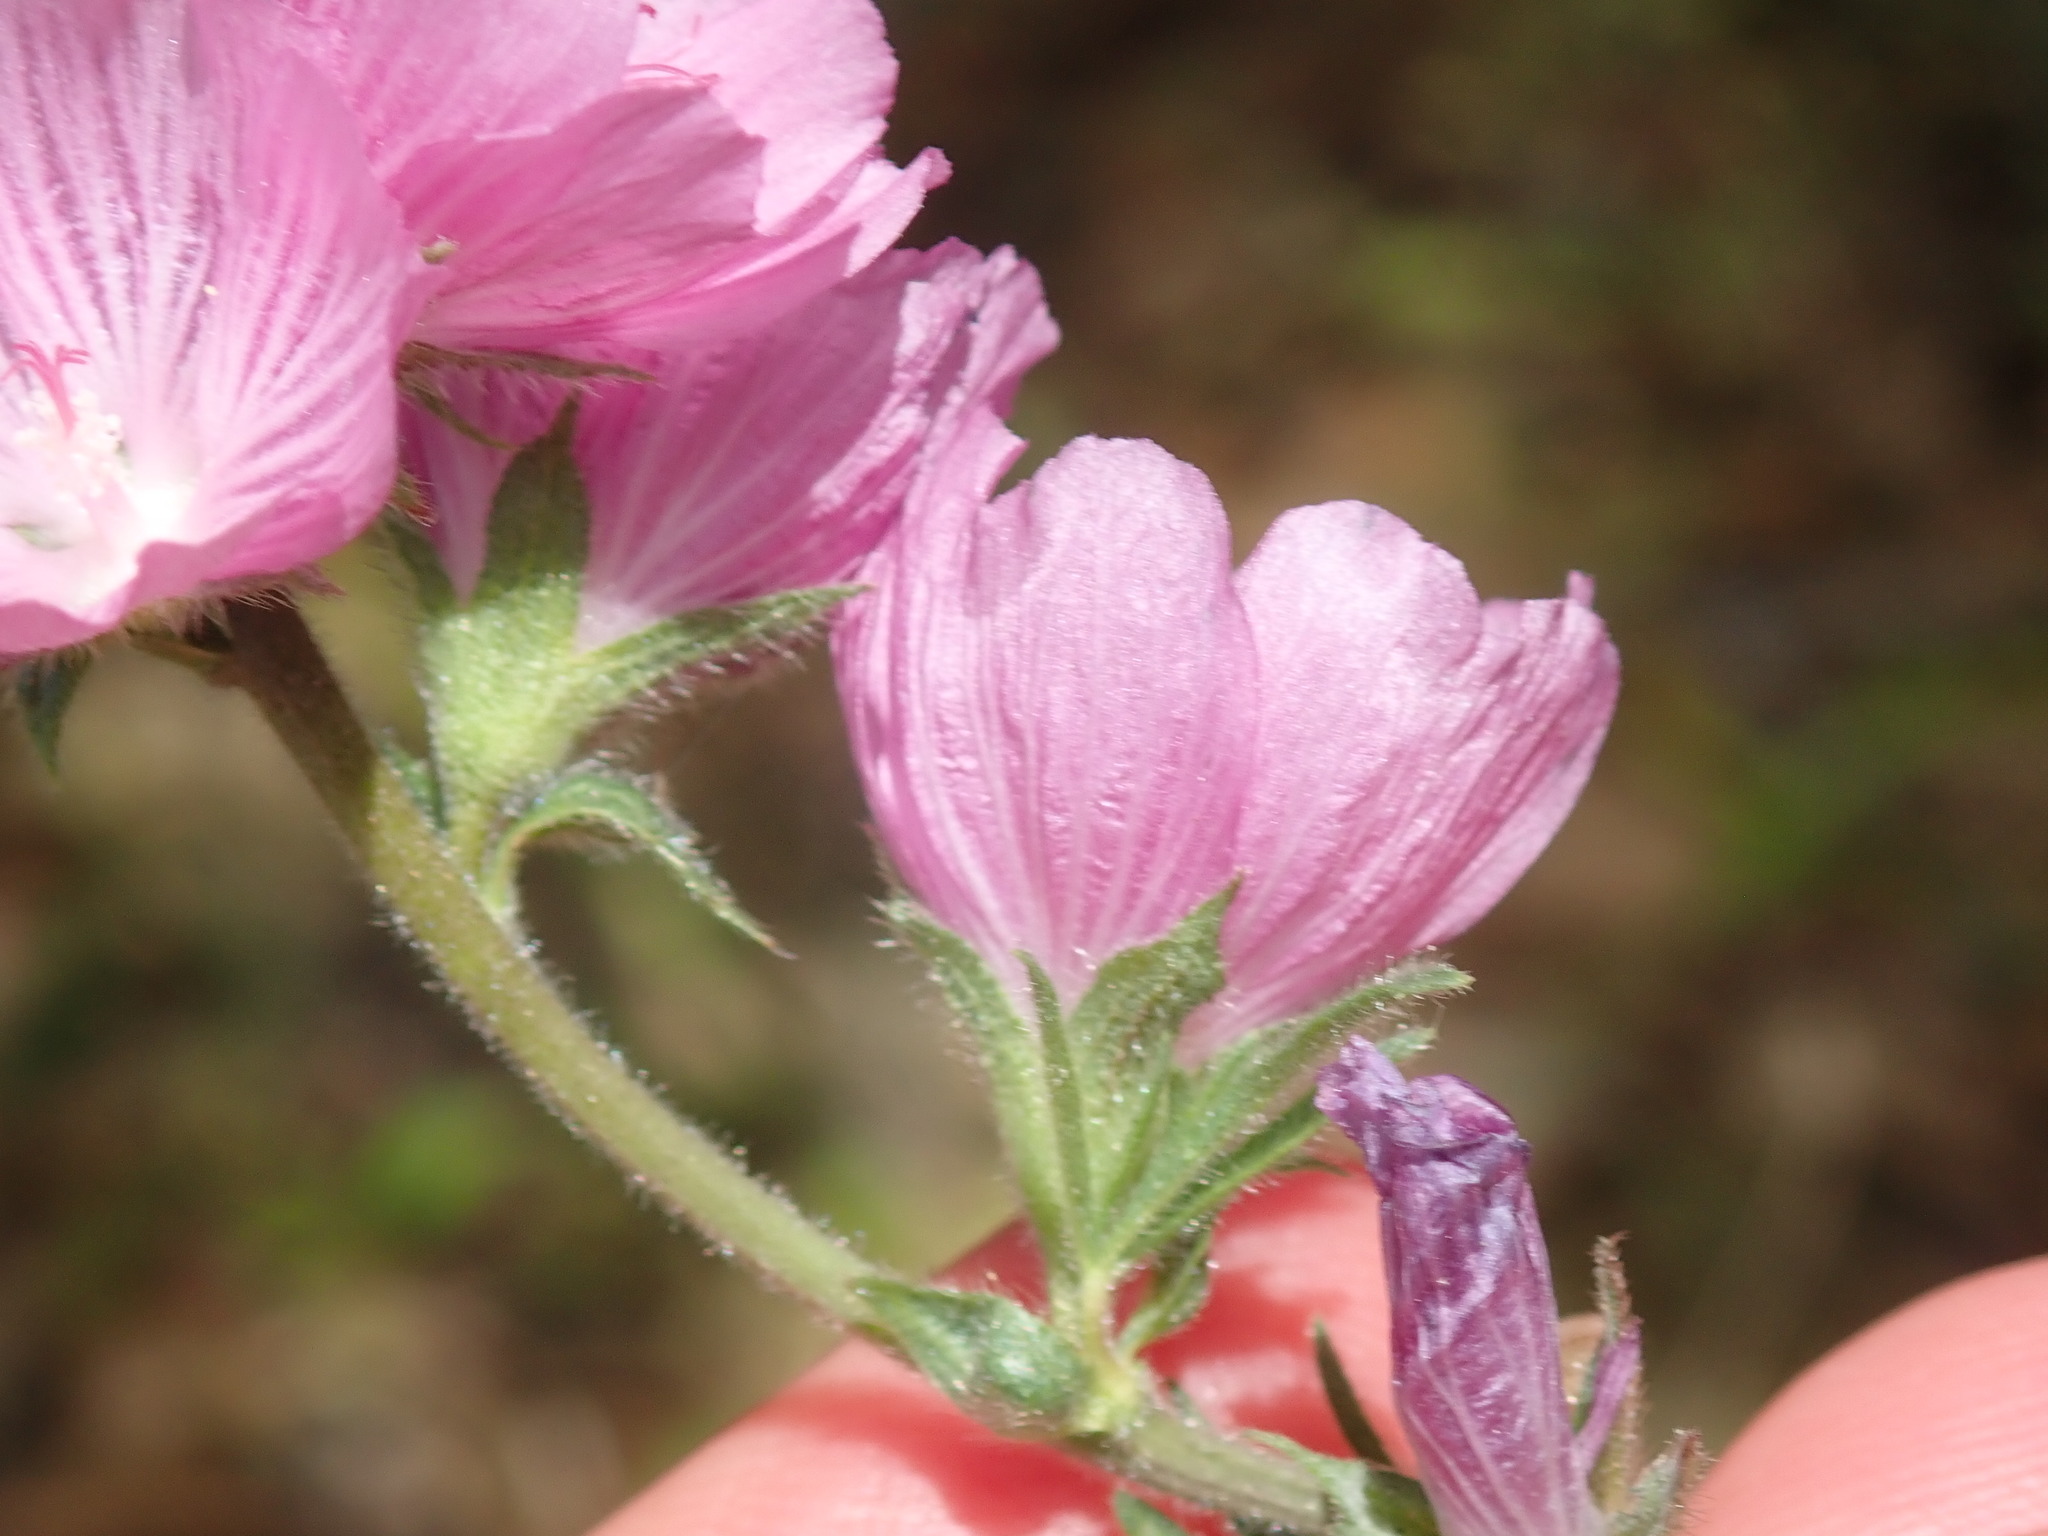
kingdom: Plantae
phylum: Tracheophyta
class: Magnoliopsida
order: Malvales
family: Malvaceae
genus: Sidalcea
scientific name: Sidalcea malviflora
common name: Greek mallow
